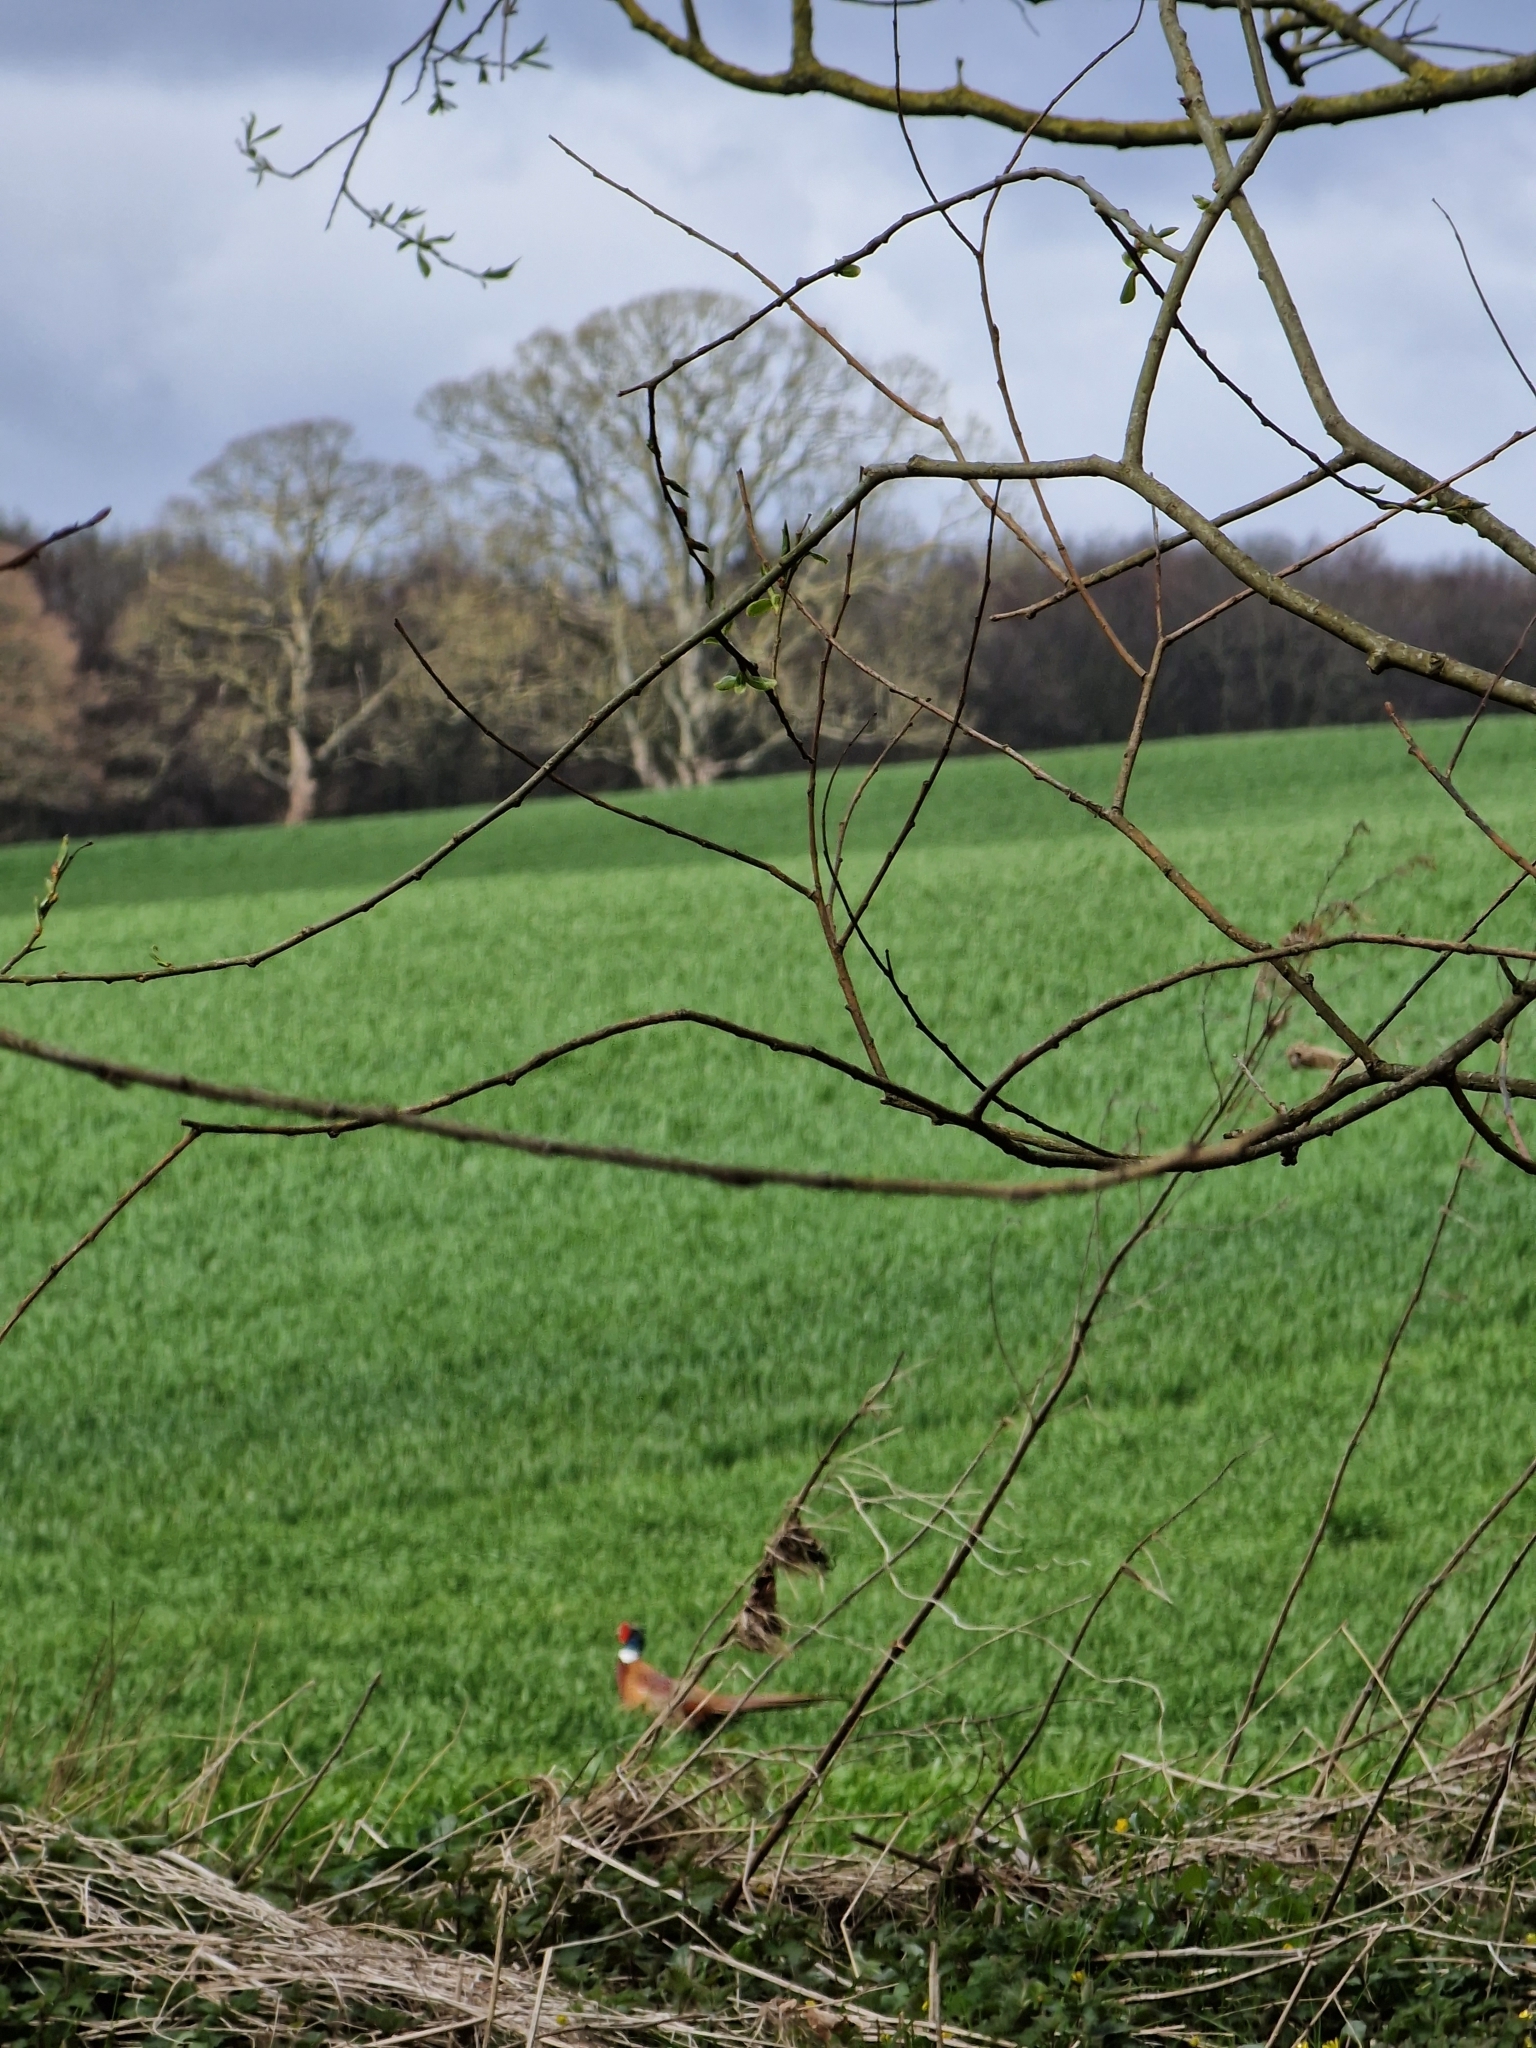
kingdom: Animalia
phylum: Chordata
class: Aves
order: Galliformes
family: Phasianidae
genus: Phasianus
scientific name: Phasianus colchicus
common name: Common pheasant
